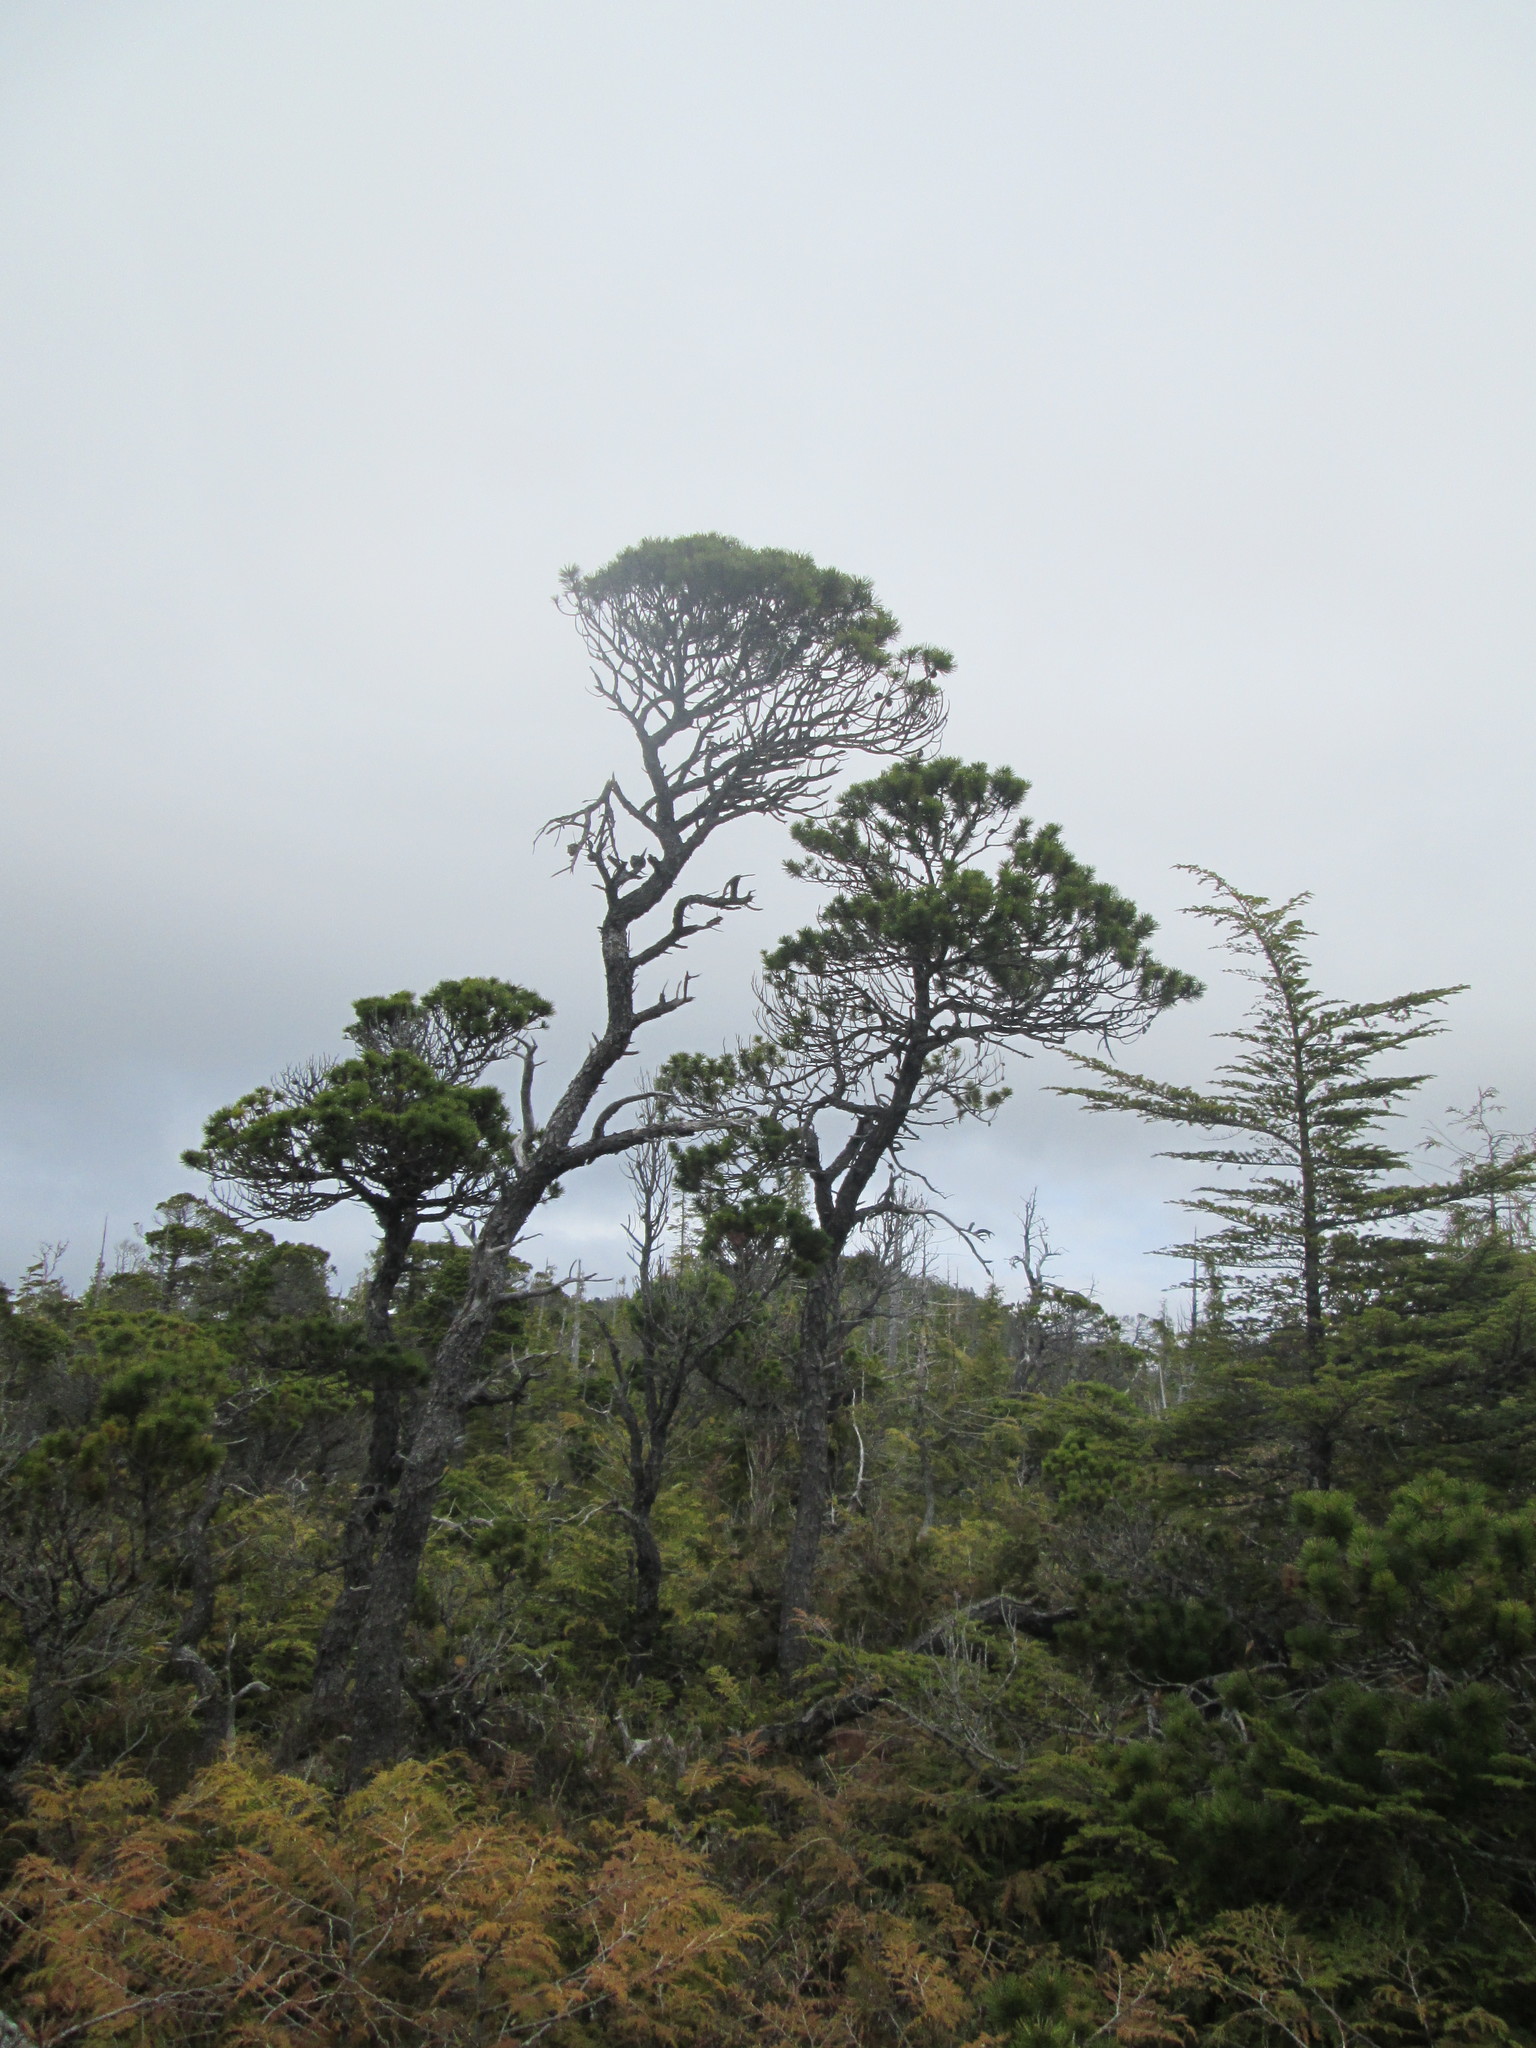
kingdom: Plantae
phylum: Tracheophyta
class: Pinopsida
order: Pinales
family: Pinaceae
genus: Pinus
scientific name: Pinus contorta
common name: Lodgepole pine
